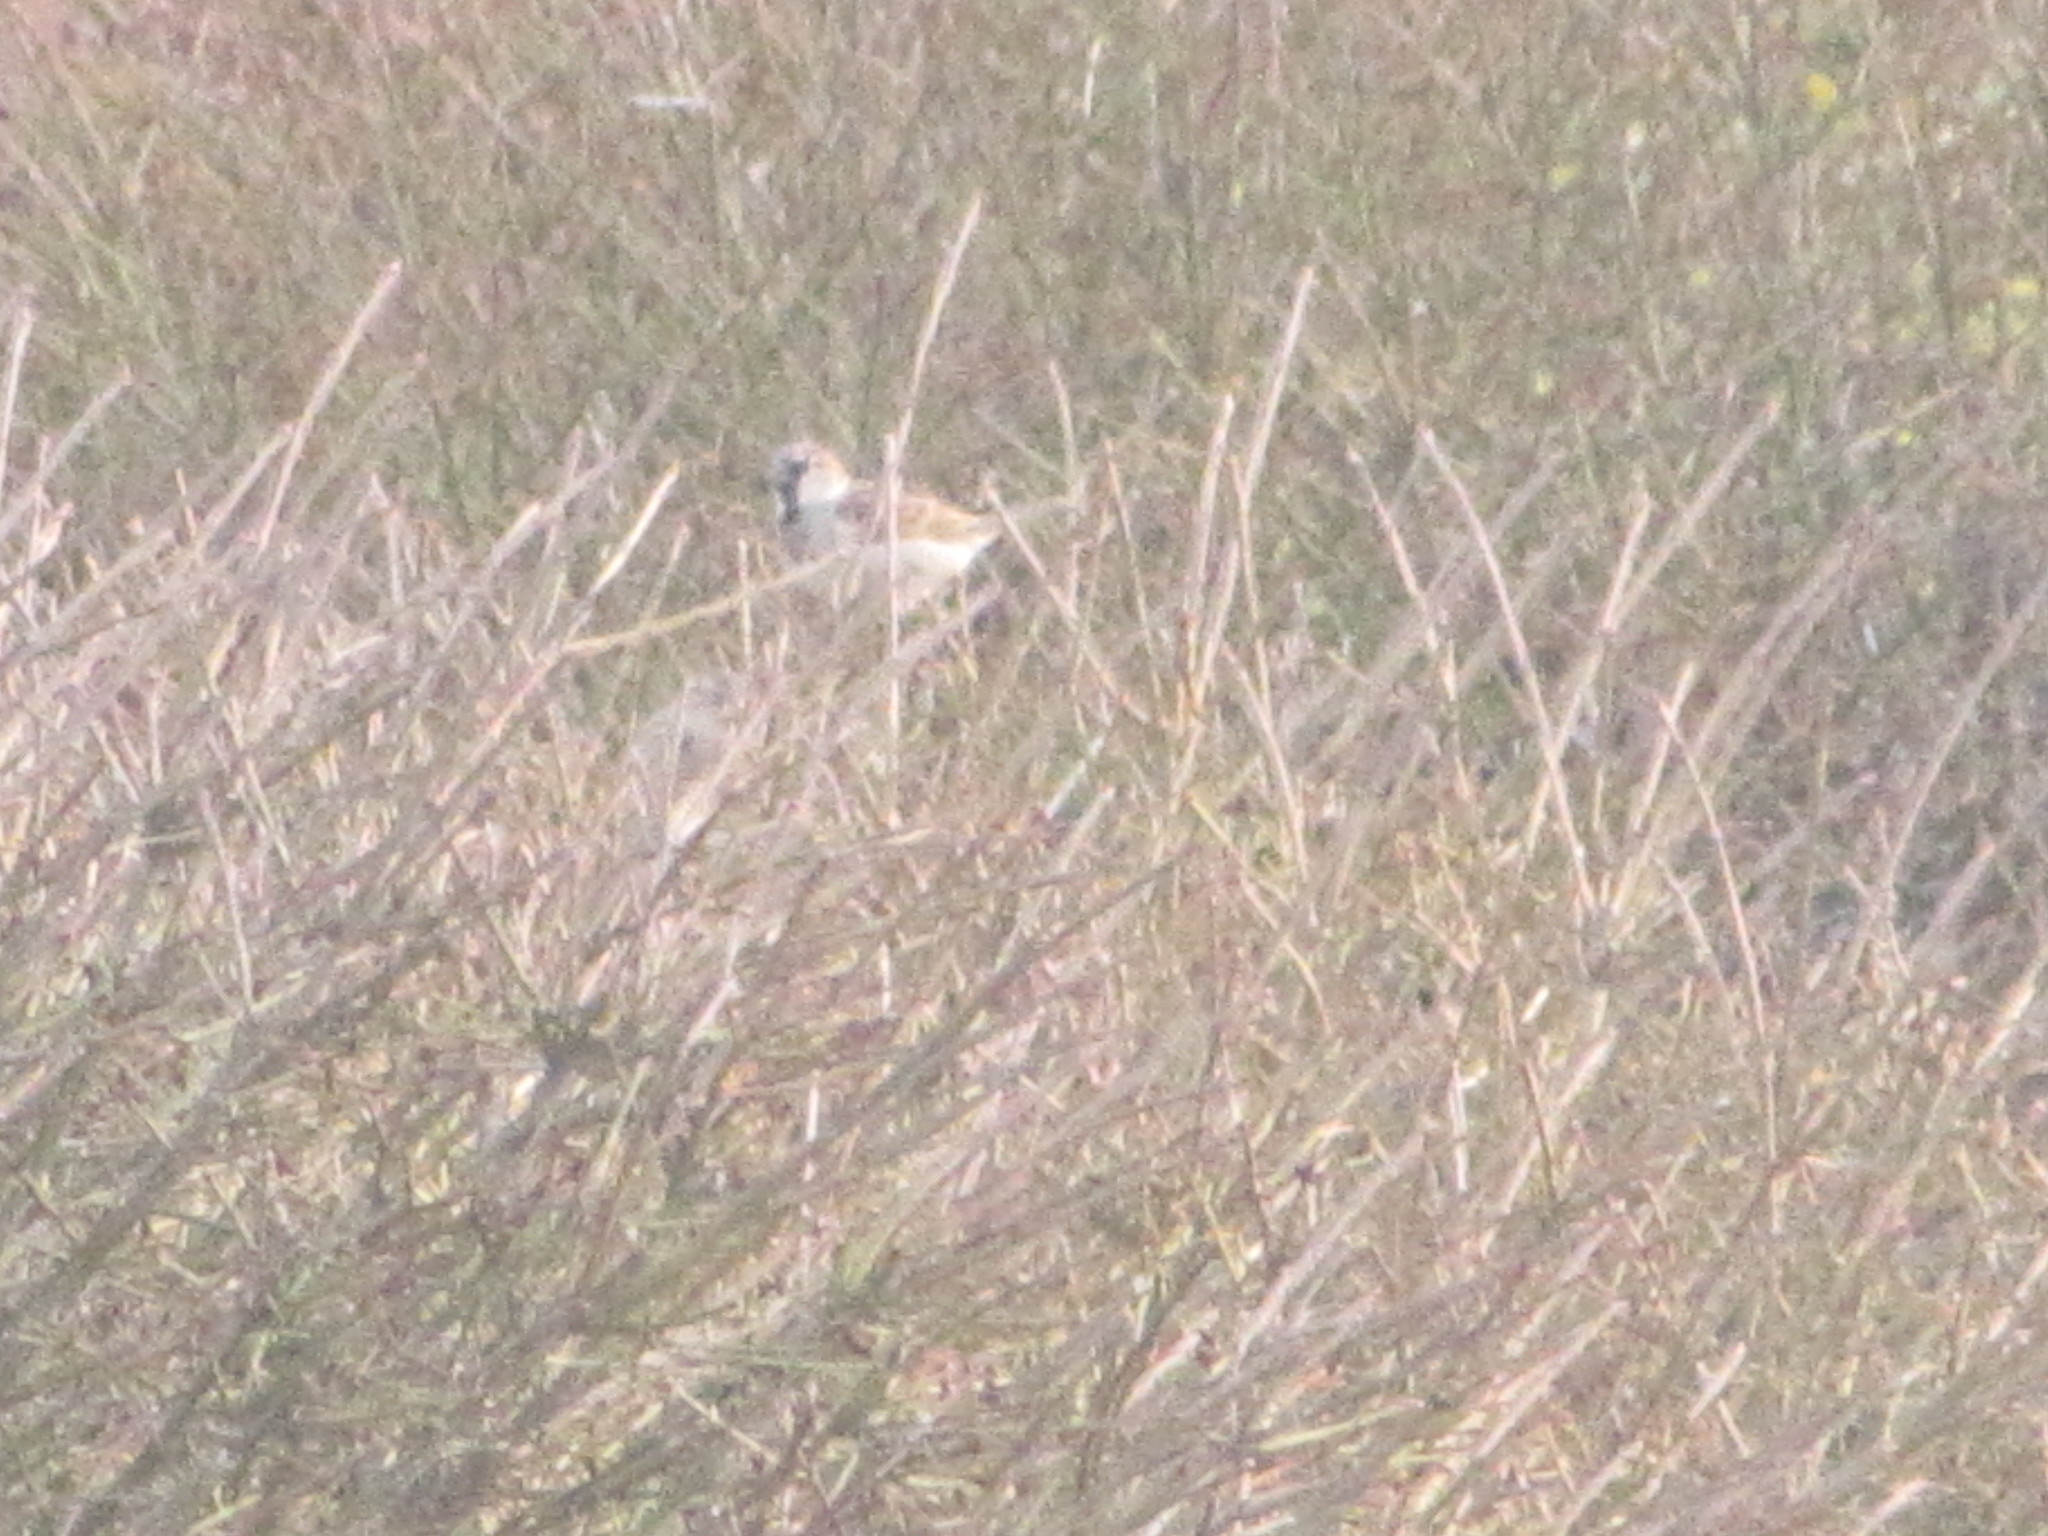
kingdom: Animalia
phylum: Chordata
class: Aves
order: Passeriformes
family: Passeridae
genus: Passer
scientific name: Passer domesticus
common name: House sparrow
